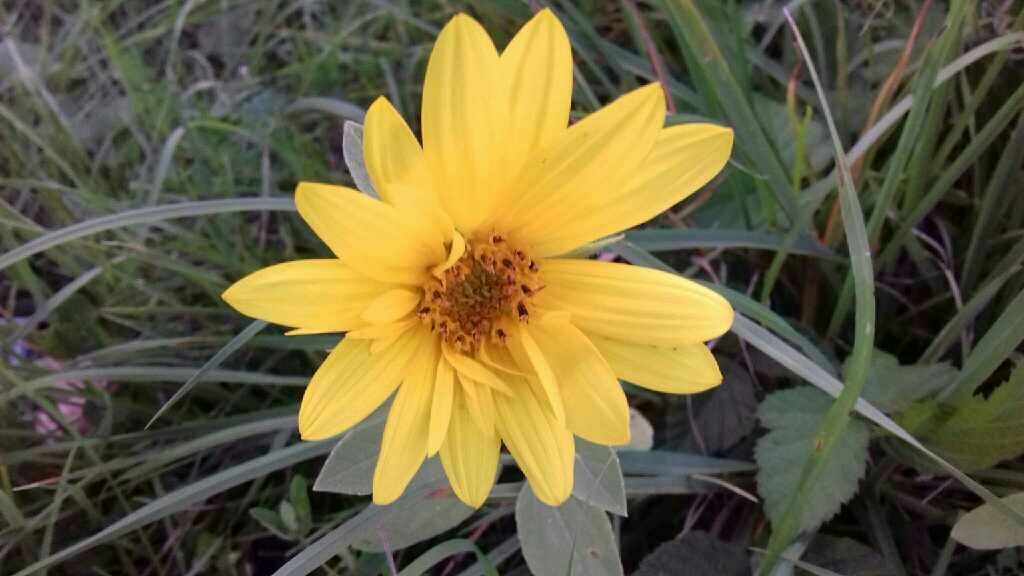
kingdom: Plantae
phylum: Tracheophyta
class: Magnoliopsida
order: Asterales
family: Asteraceae
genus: Helianthus
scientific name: Helianthus tuberosus
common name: Jerusalem artichoke
